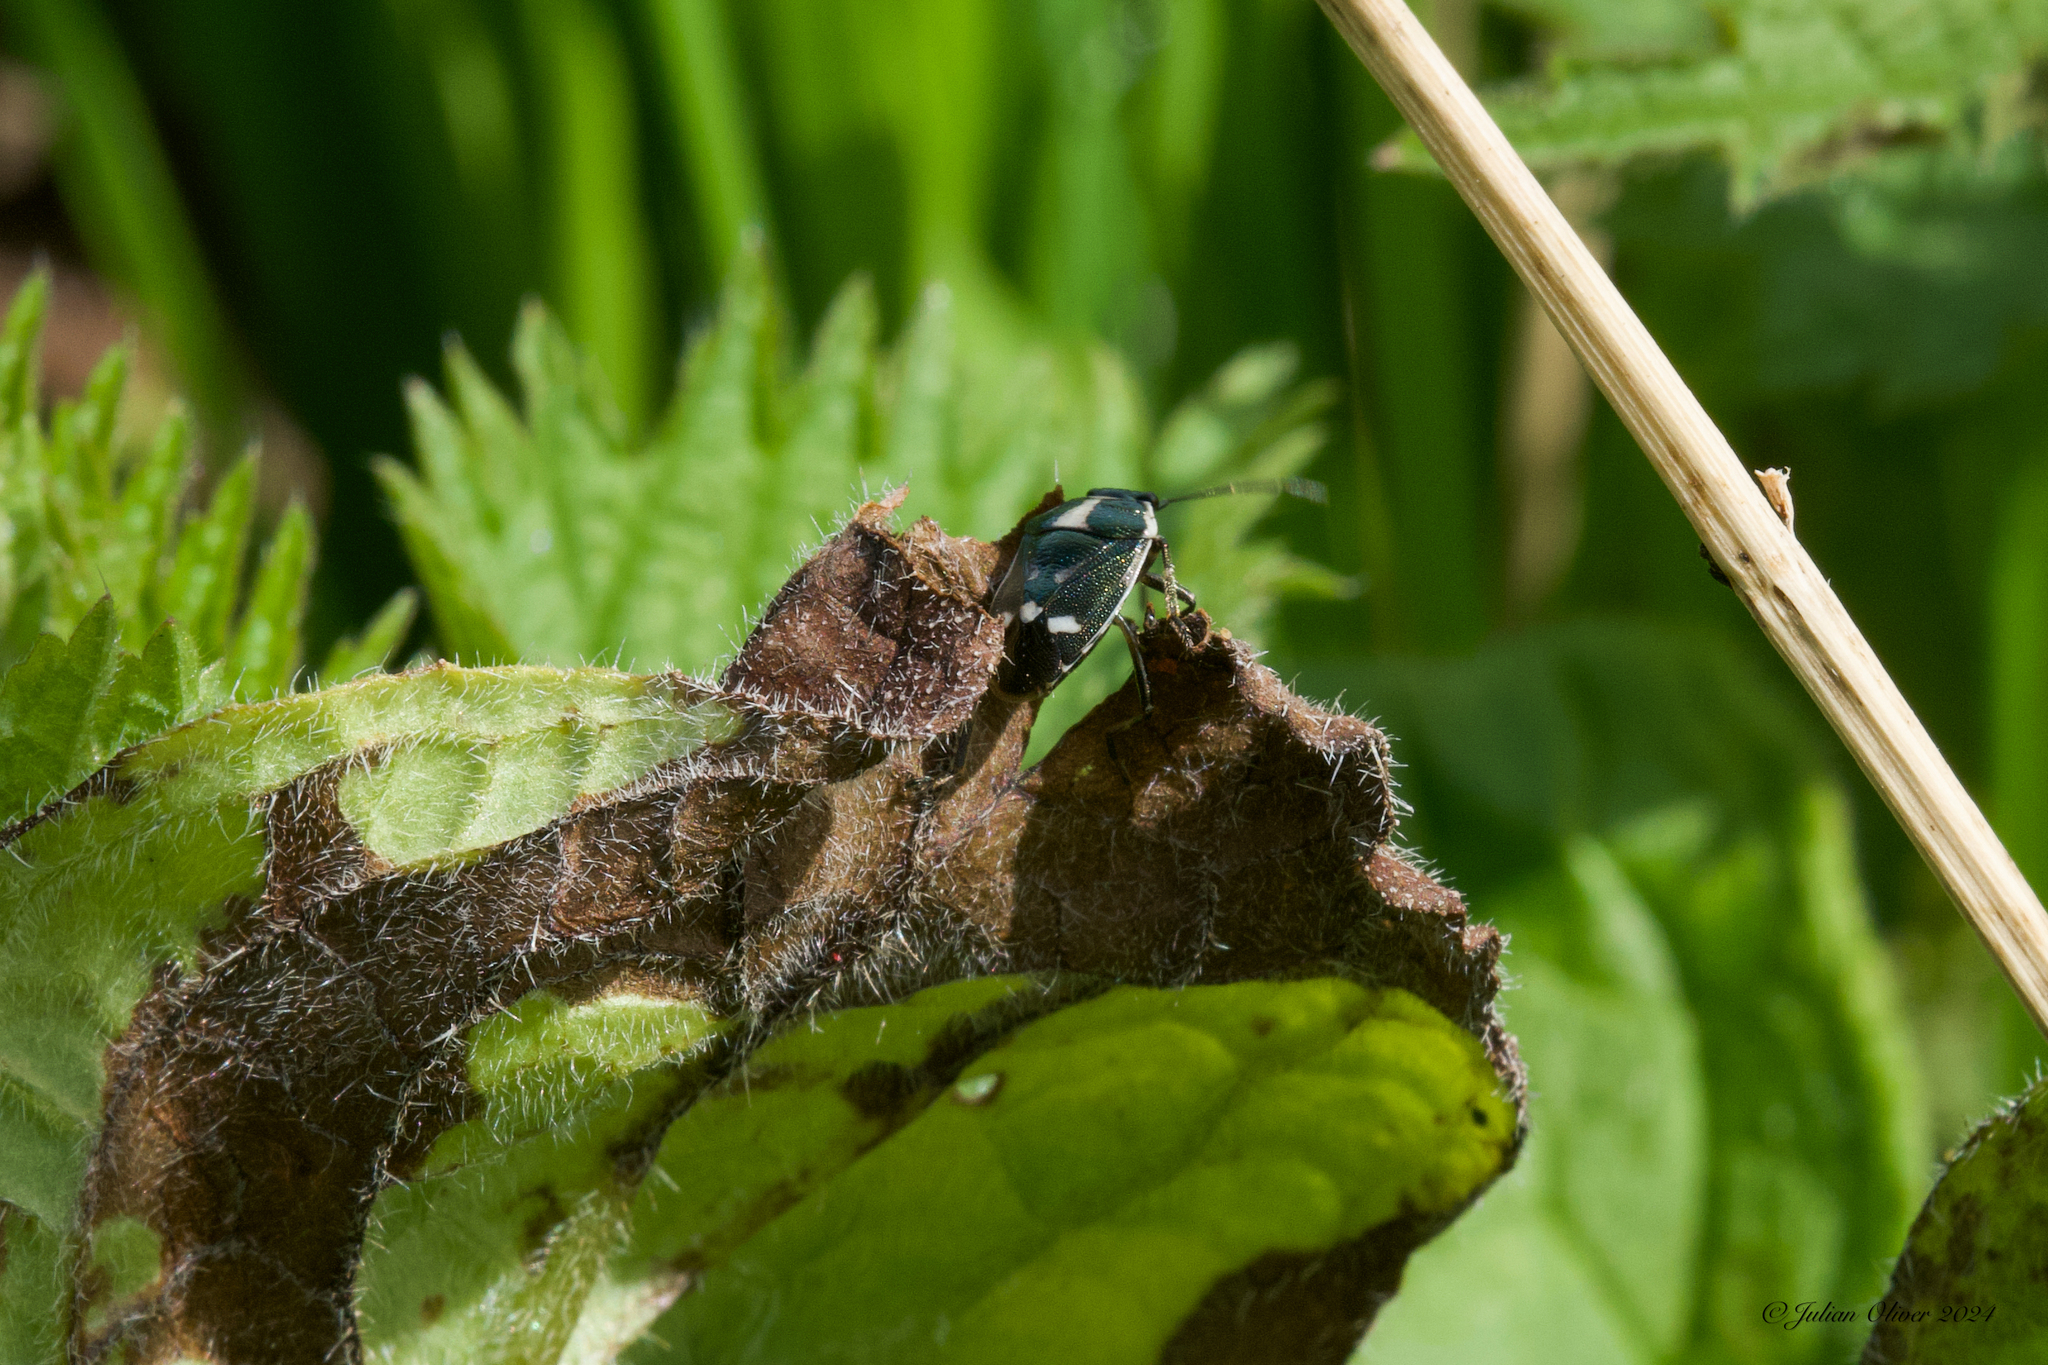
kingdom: Animalia
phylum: Arthropoda
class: Insecta
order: Hemiptera
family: Pentatomidae
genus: Eurydema
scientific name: Eurydema oleracea
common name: Cabbage bug
